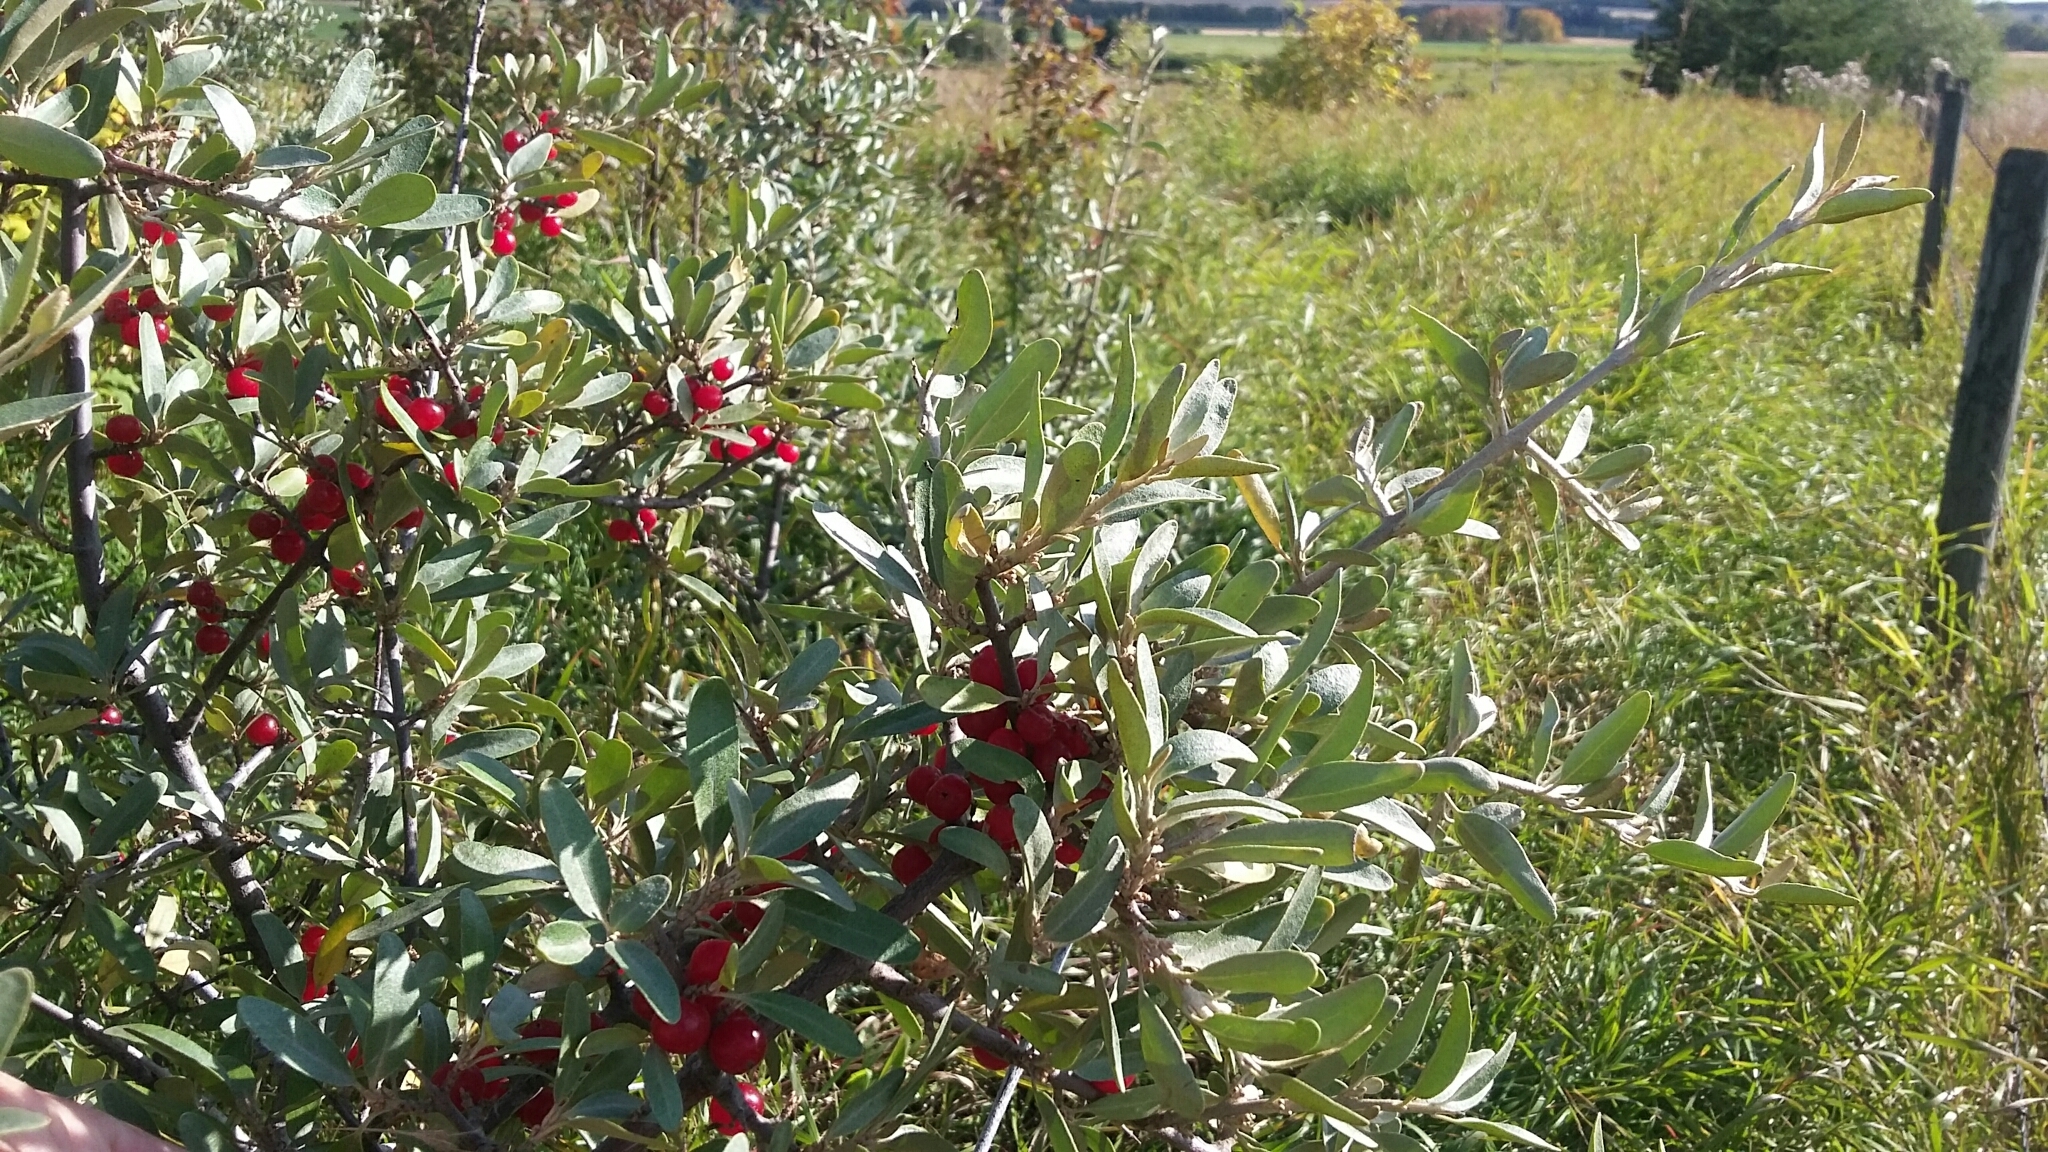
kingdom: Plantae
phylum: Tracheophyta
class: Magnoliopsida
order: Rosales
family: Elaeagnaceae
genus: Shepherdia
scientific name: Shepherdia argentea
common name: Silver buffaloberry
